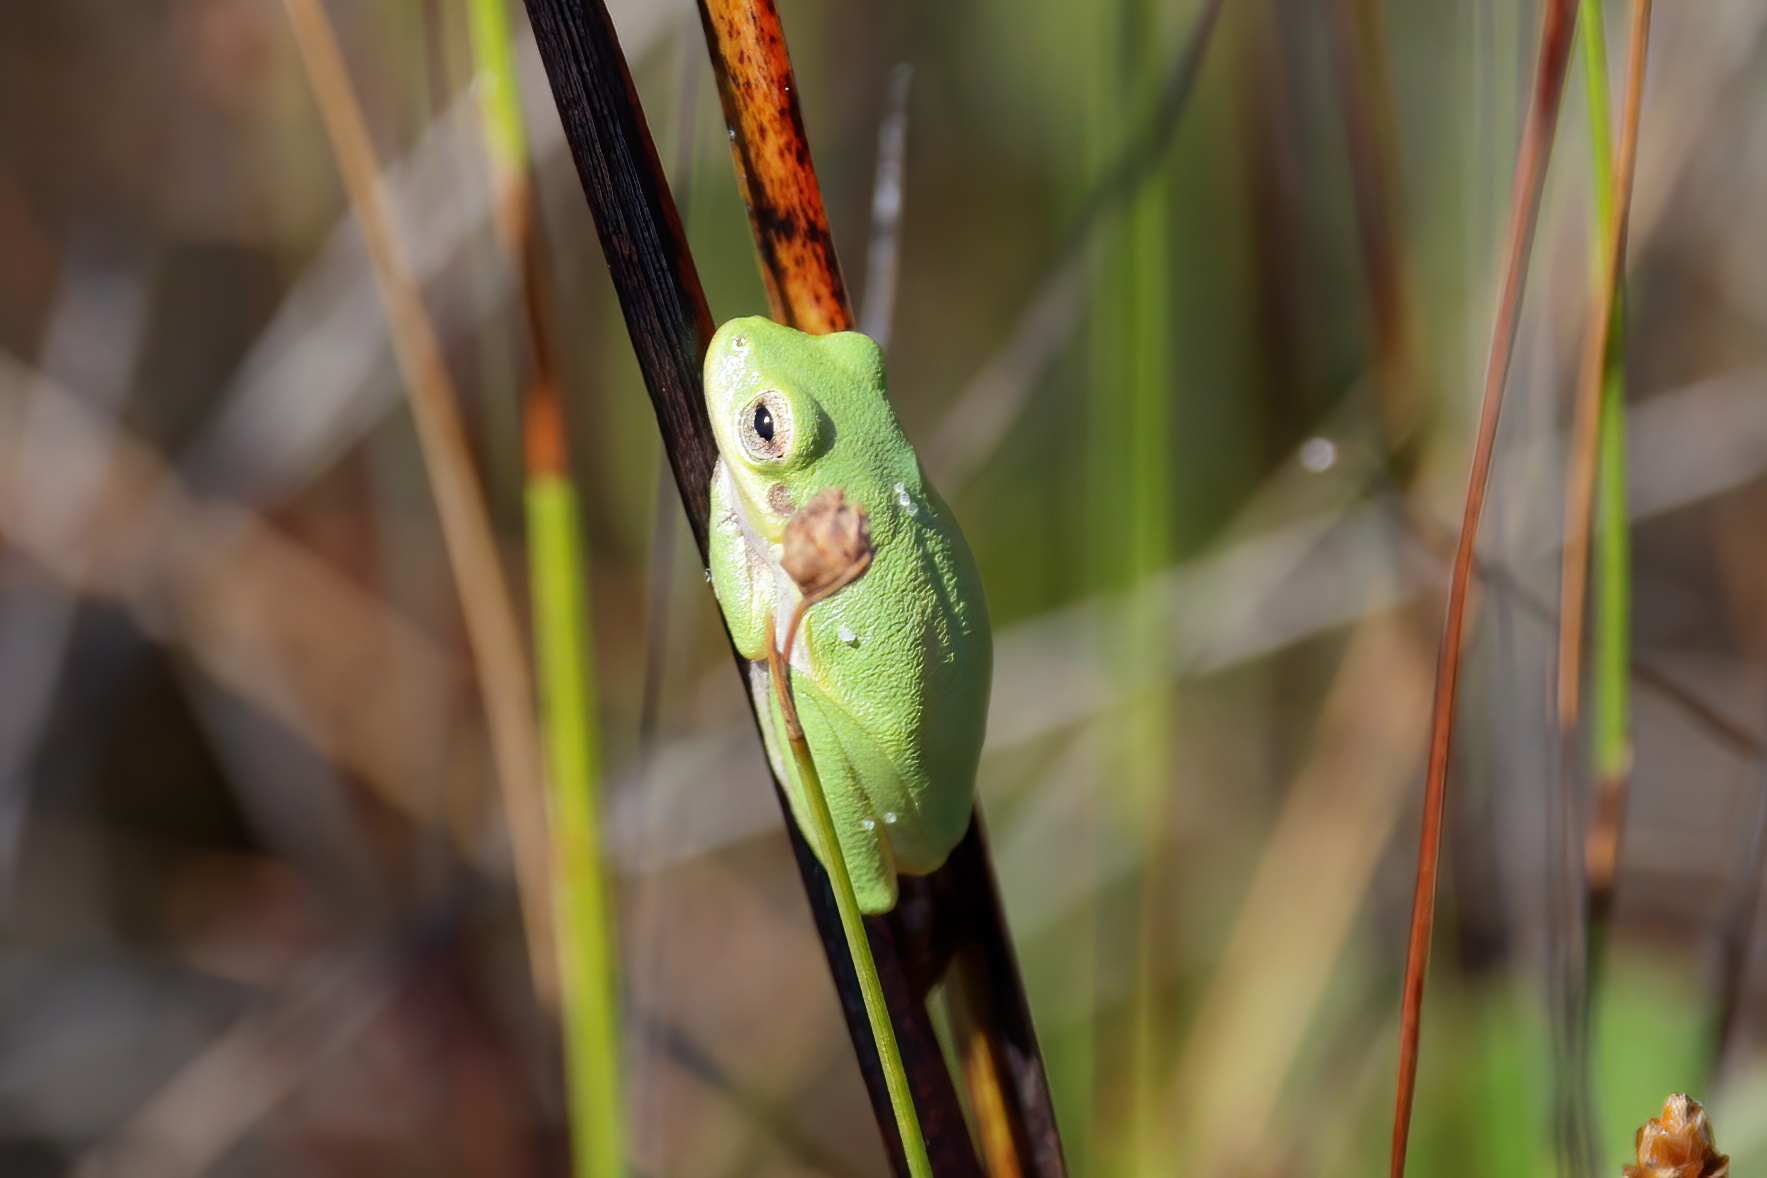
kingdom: Animalia
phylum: Chordata
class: Amphibia
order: Anura
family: Hylidae
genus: Dryophytes
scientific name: Dryophytes squirellus
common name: Squirrel treefrog
